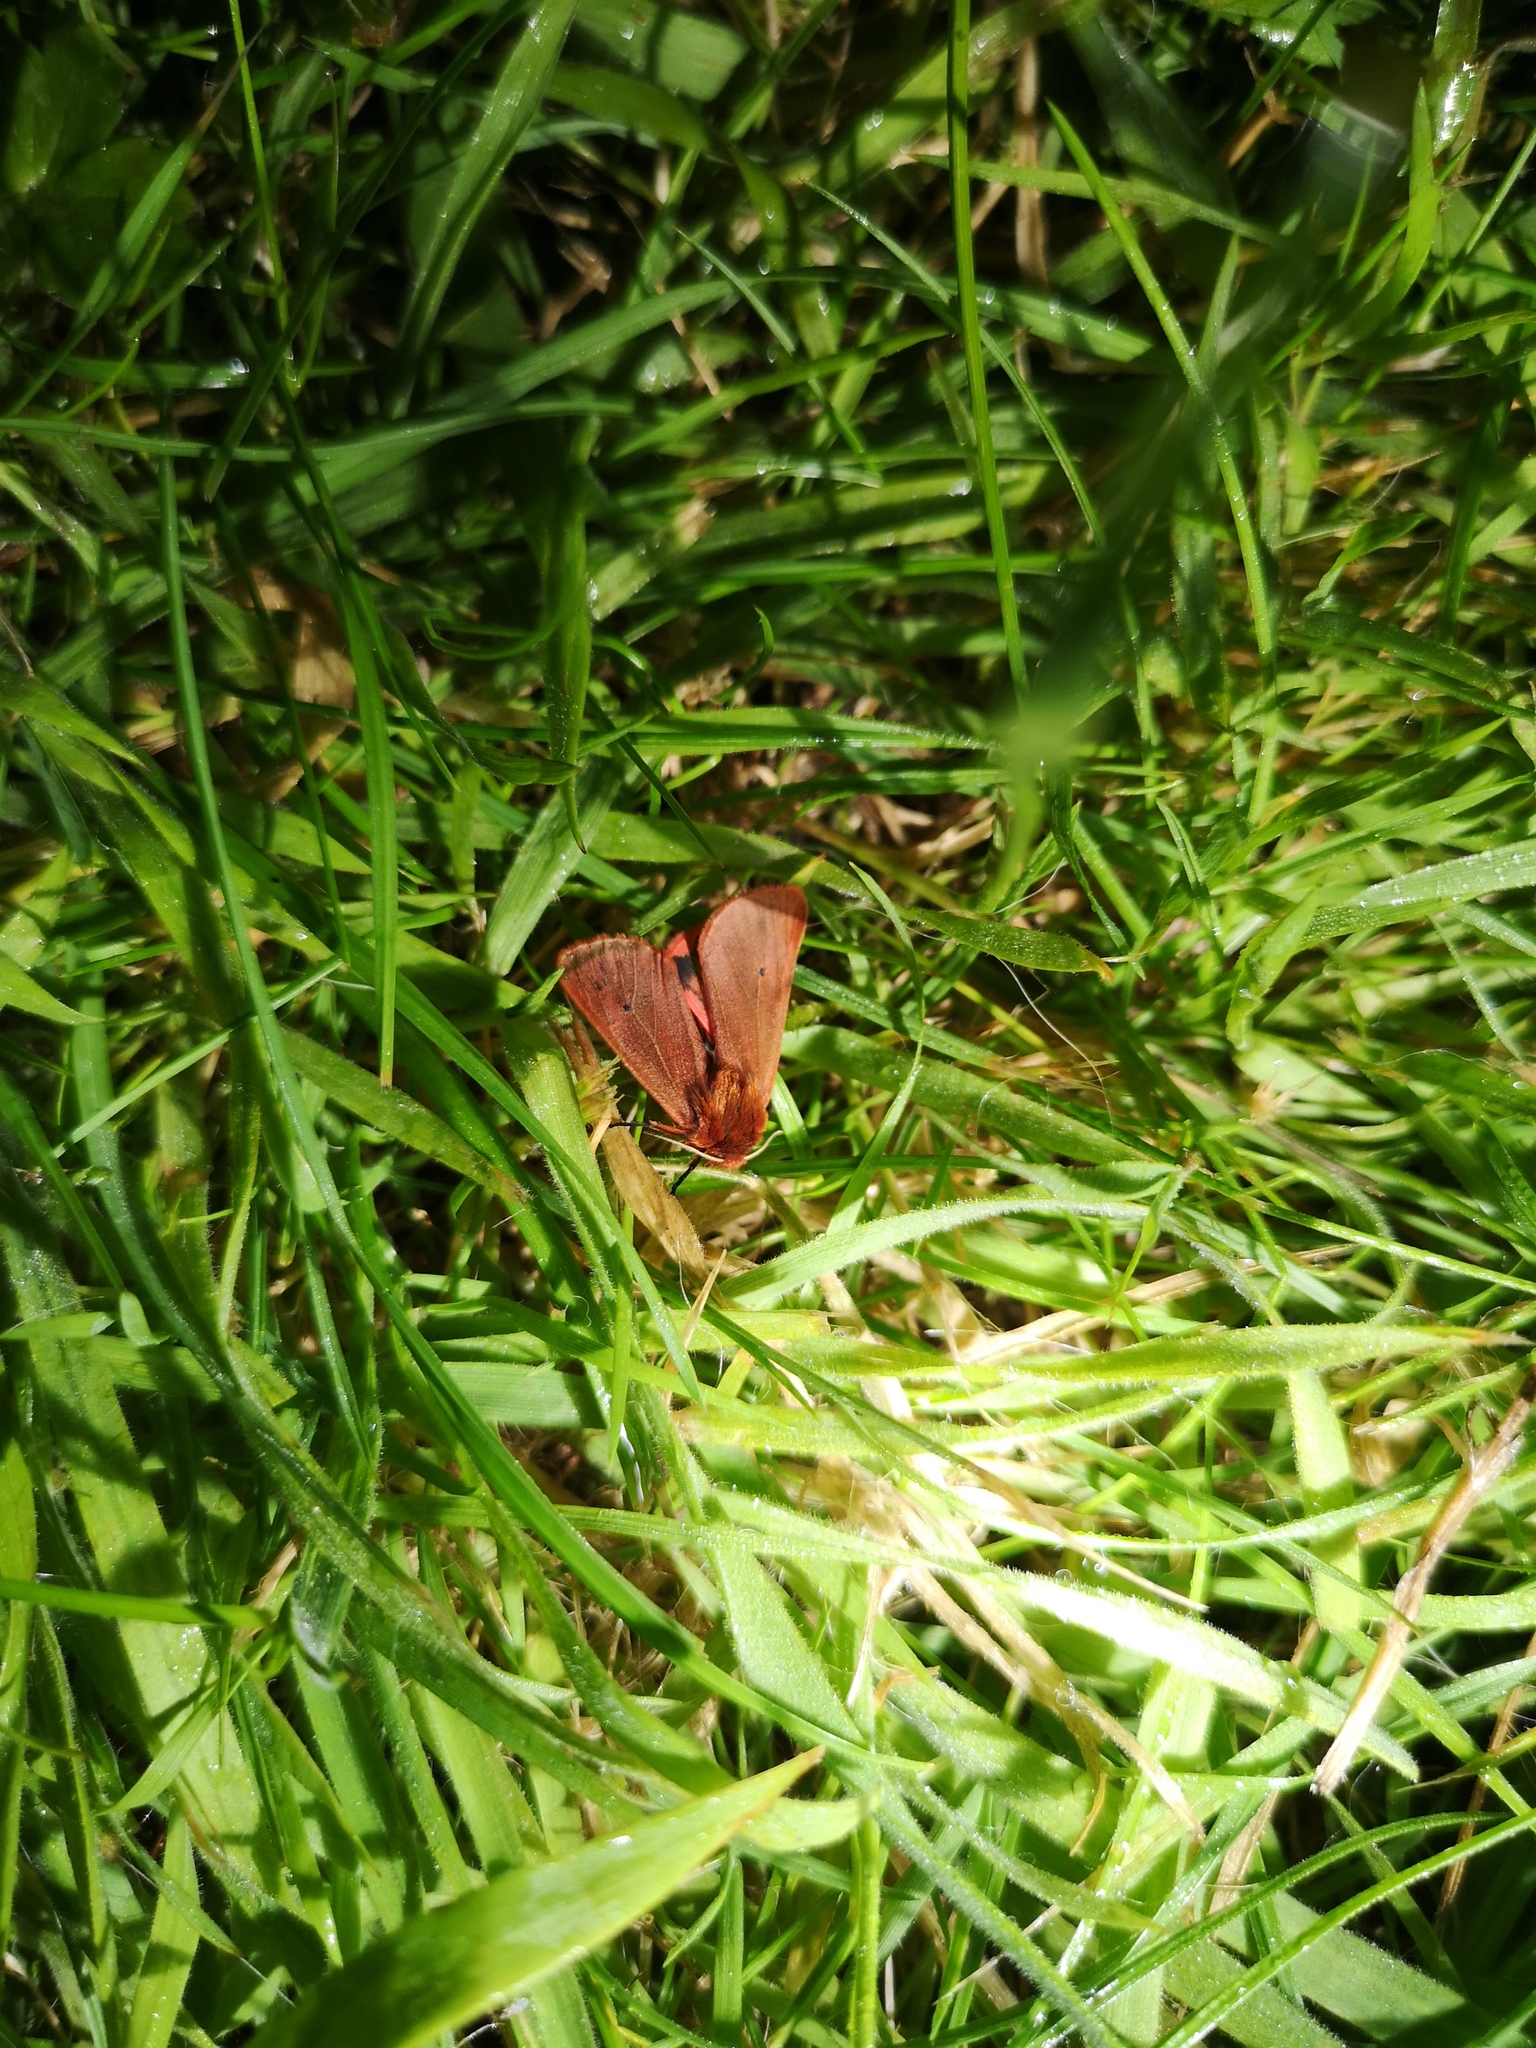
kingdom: Animalia
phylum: Arthropoda
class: Insecta
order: Lepidoptera
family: Erebidae
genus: Phragmatobia
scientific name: Phragmatobia fuliginosa
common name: Ruby tiger
